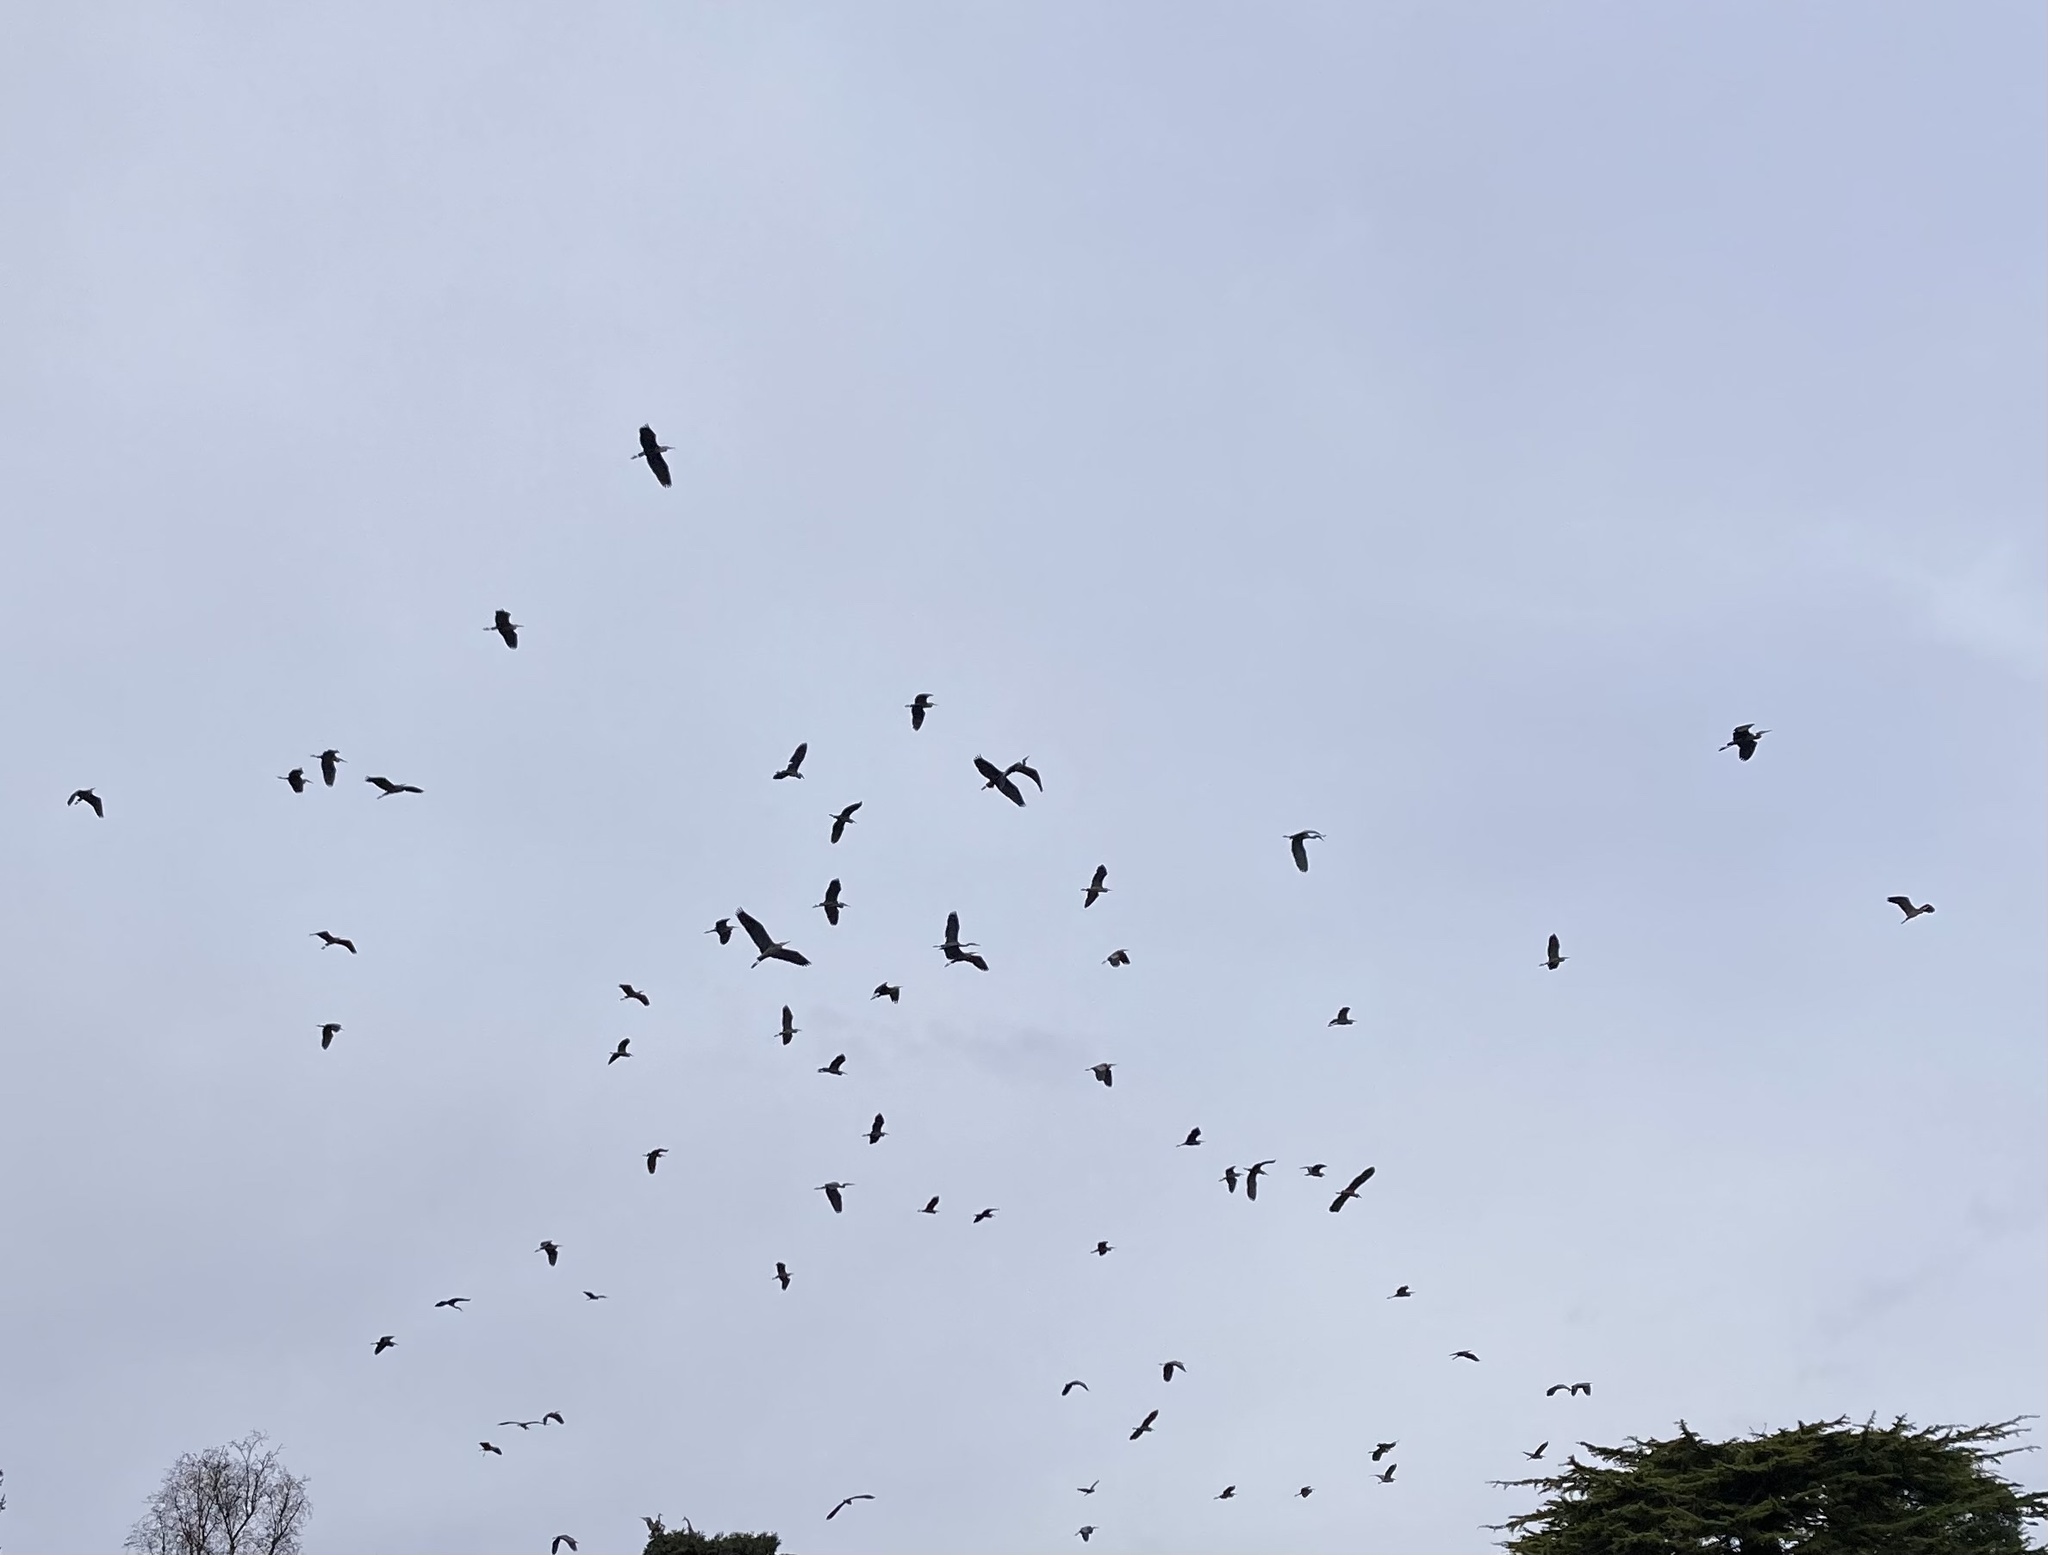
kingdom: Animalia
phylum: Chordata
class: Aves
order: Pelecaniformes
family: Ardeidae
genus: Ardea
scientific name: Ardea herodias
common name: Great blue heron
